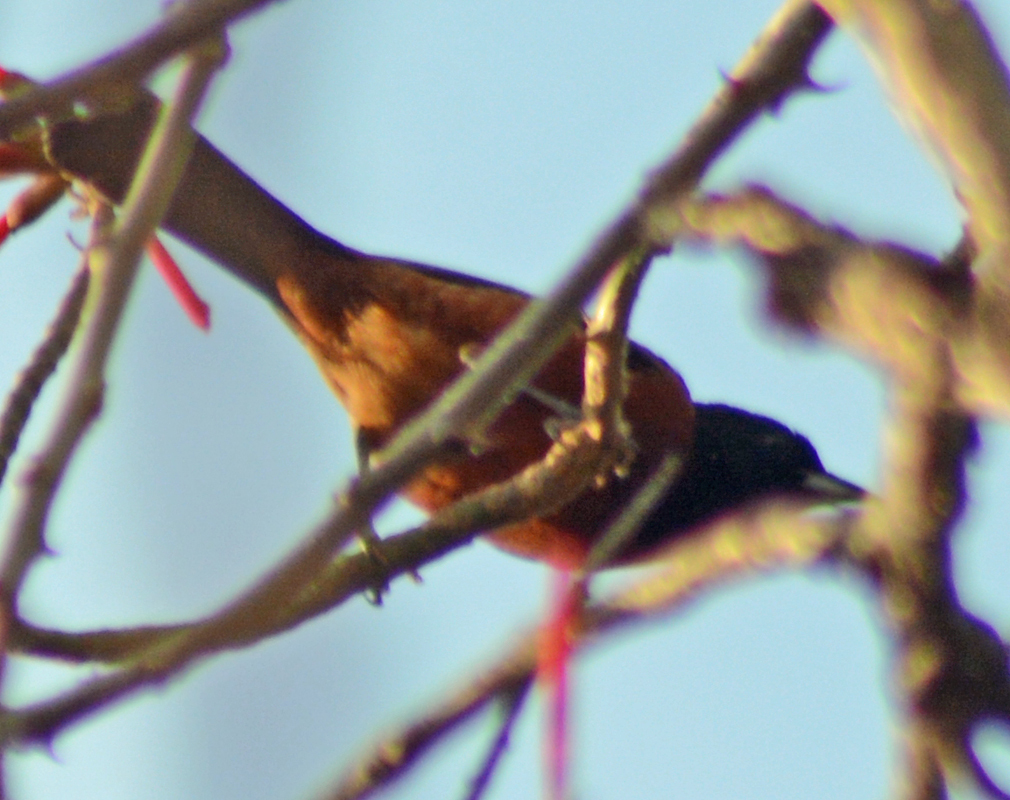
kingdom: Animalia
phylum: Chordata
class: Aves
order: Passeriformes
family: Icteridae
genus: Icterus
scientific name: Icterus spurius
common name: Orchard oriole
